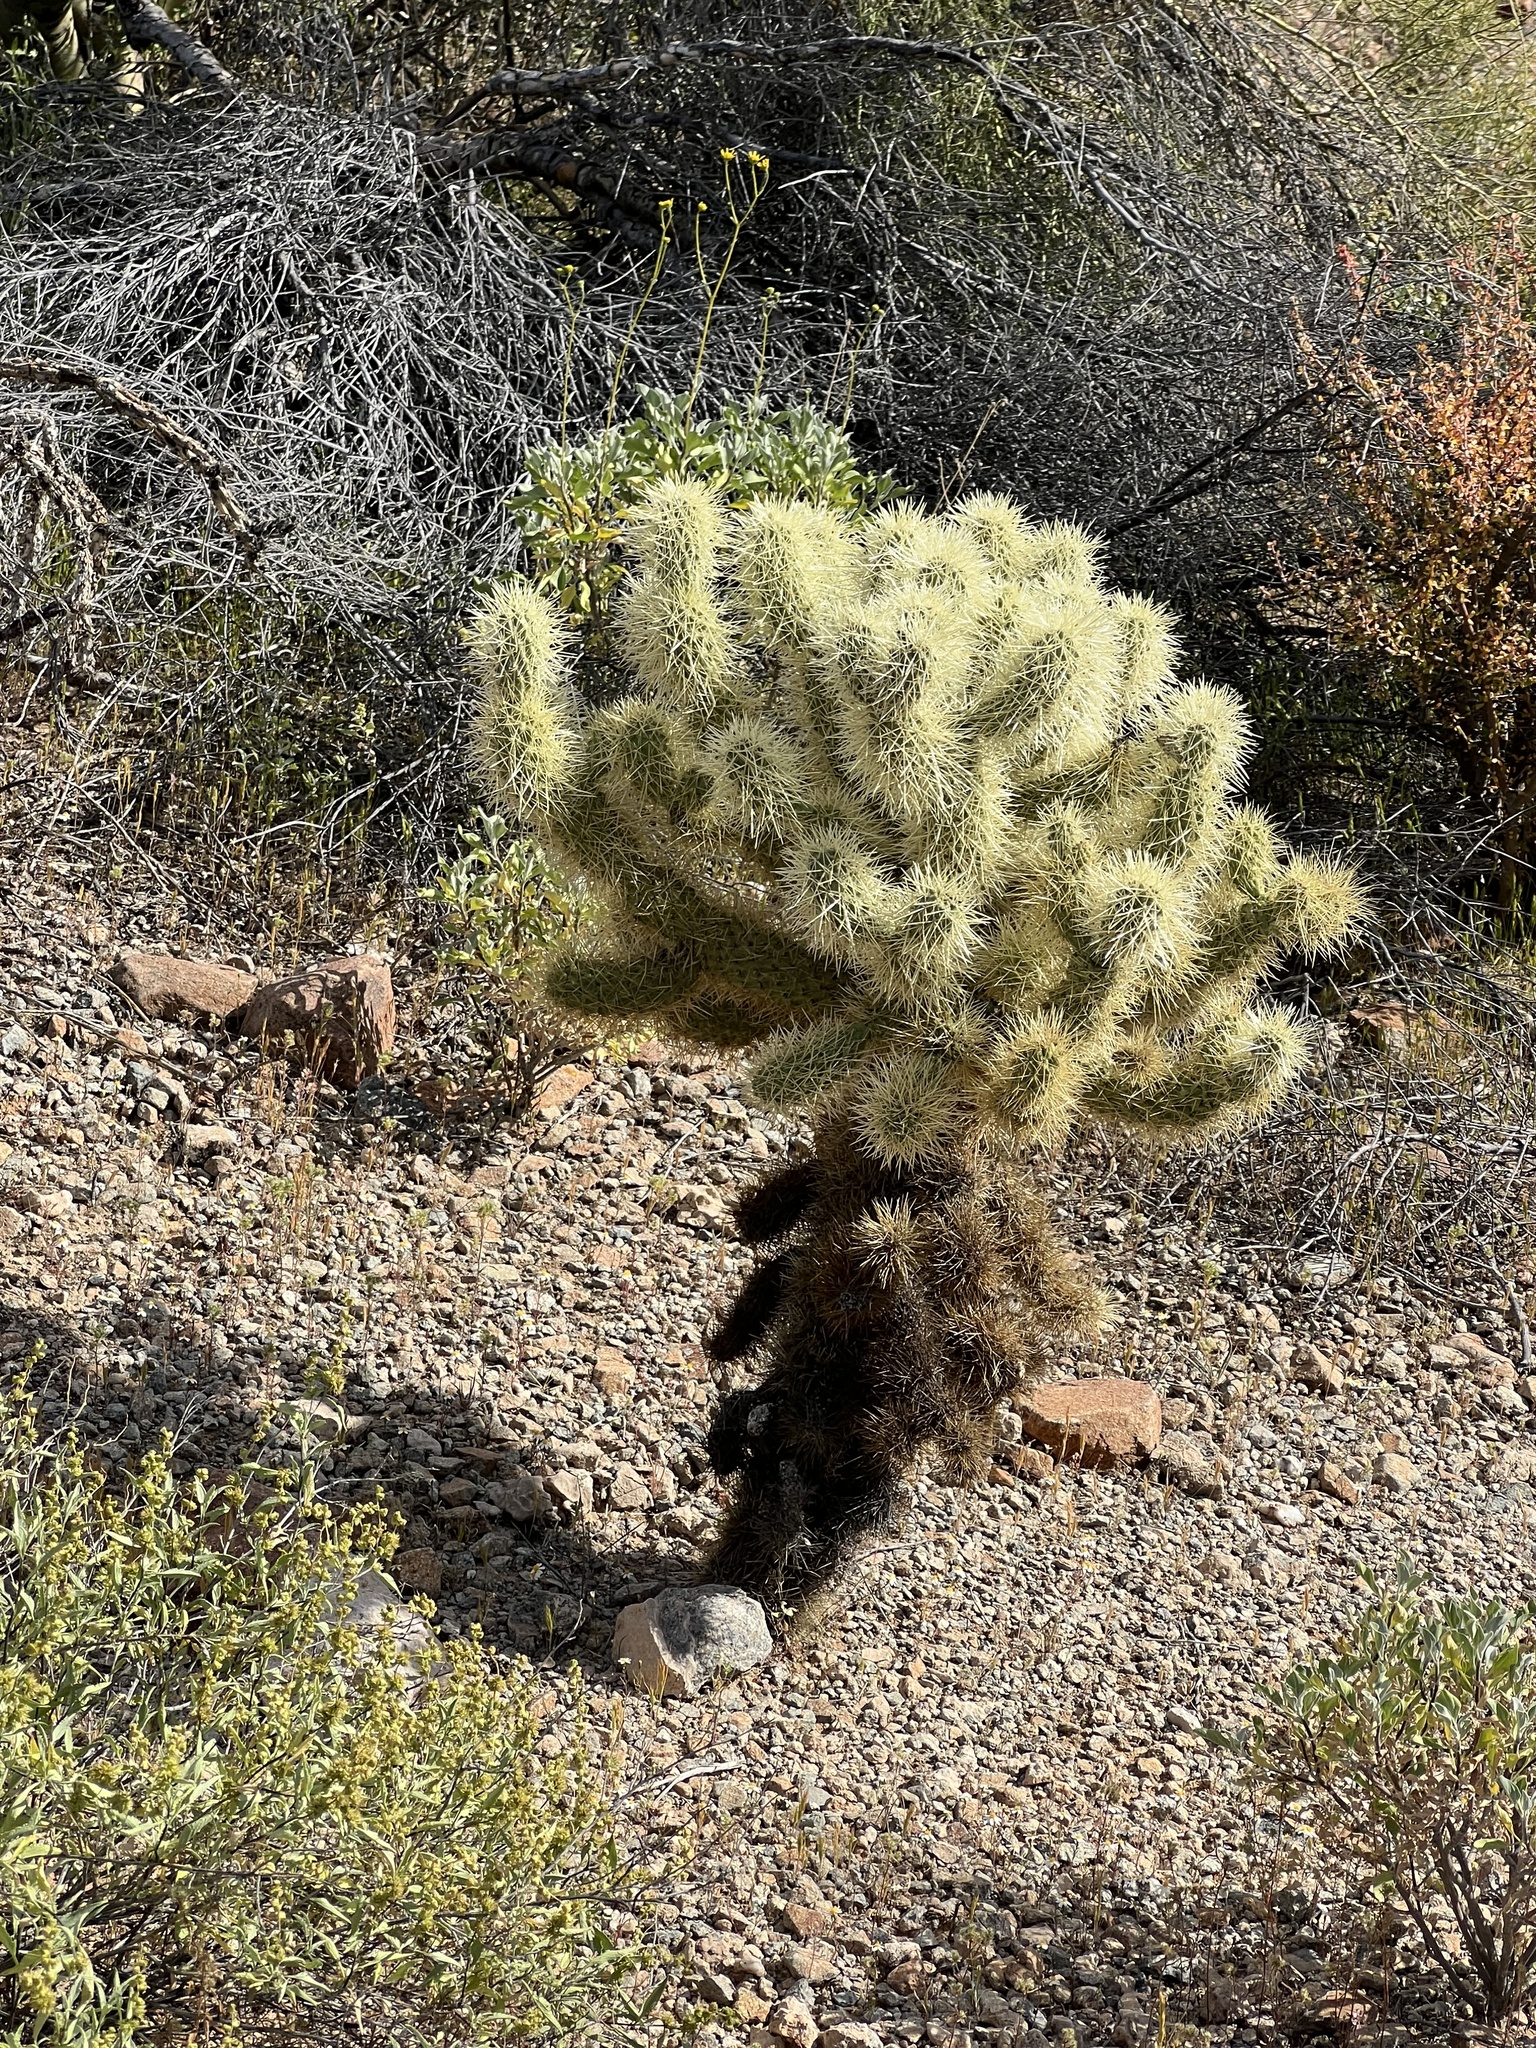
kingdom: Plantae
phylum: Tracheophyta
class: Magnoliopsida
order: Caryophyllales
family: Cactaceae
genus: Cylindropuntia
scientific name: Cylindropuntia fosbergii
